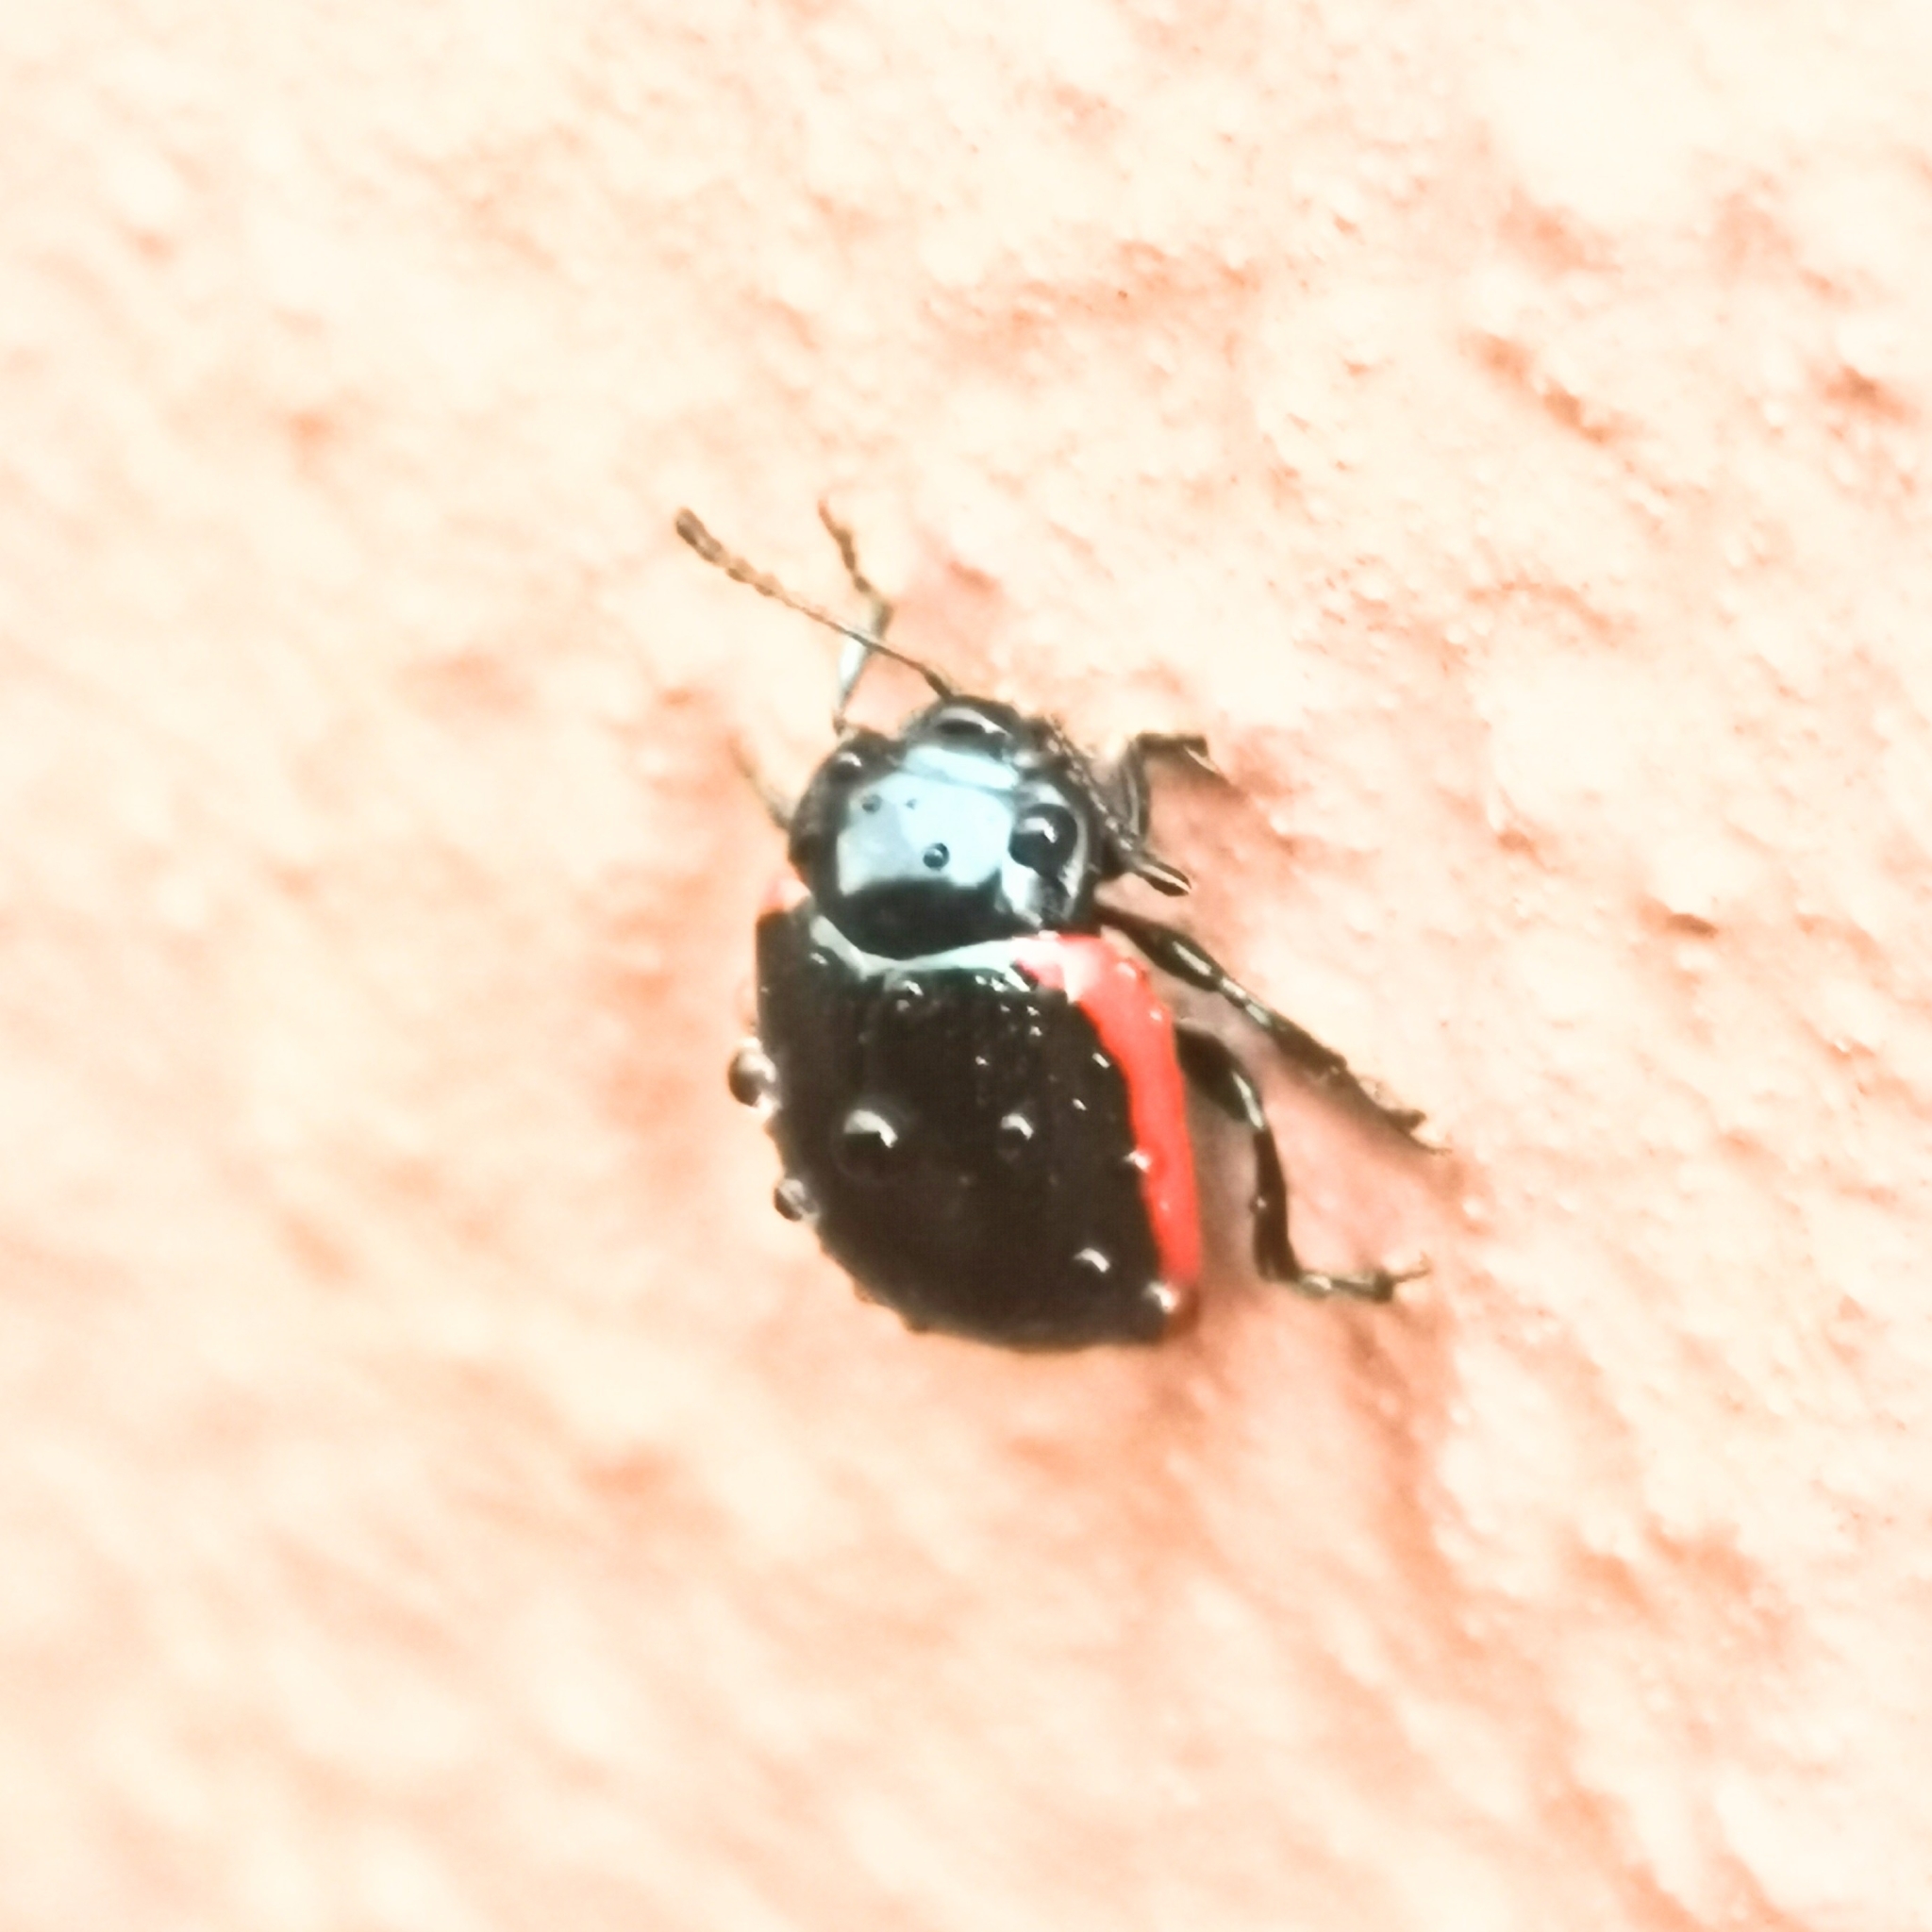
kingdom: Animalia
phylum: Arthropoda
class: Insecta
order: Coleoptera
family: Chrysomelidae
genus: Chrysolina
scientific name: Chrysolina sanguinolenta
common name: Toadflax leaf beetle
